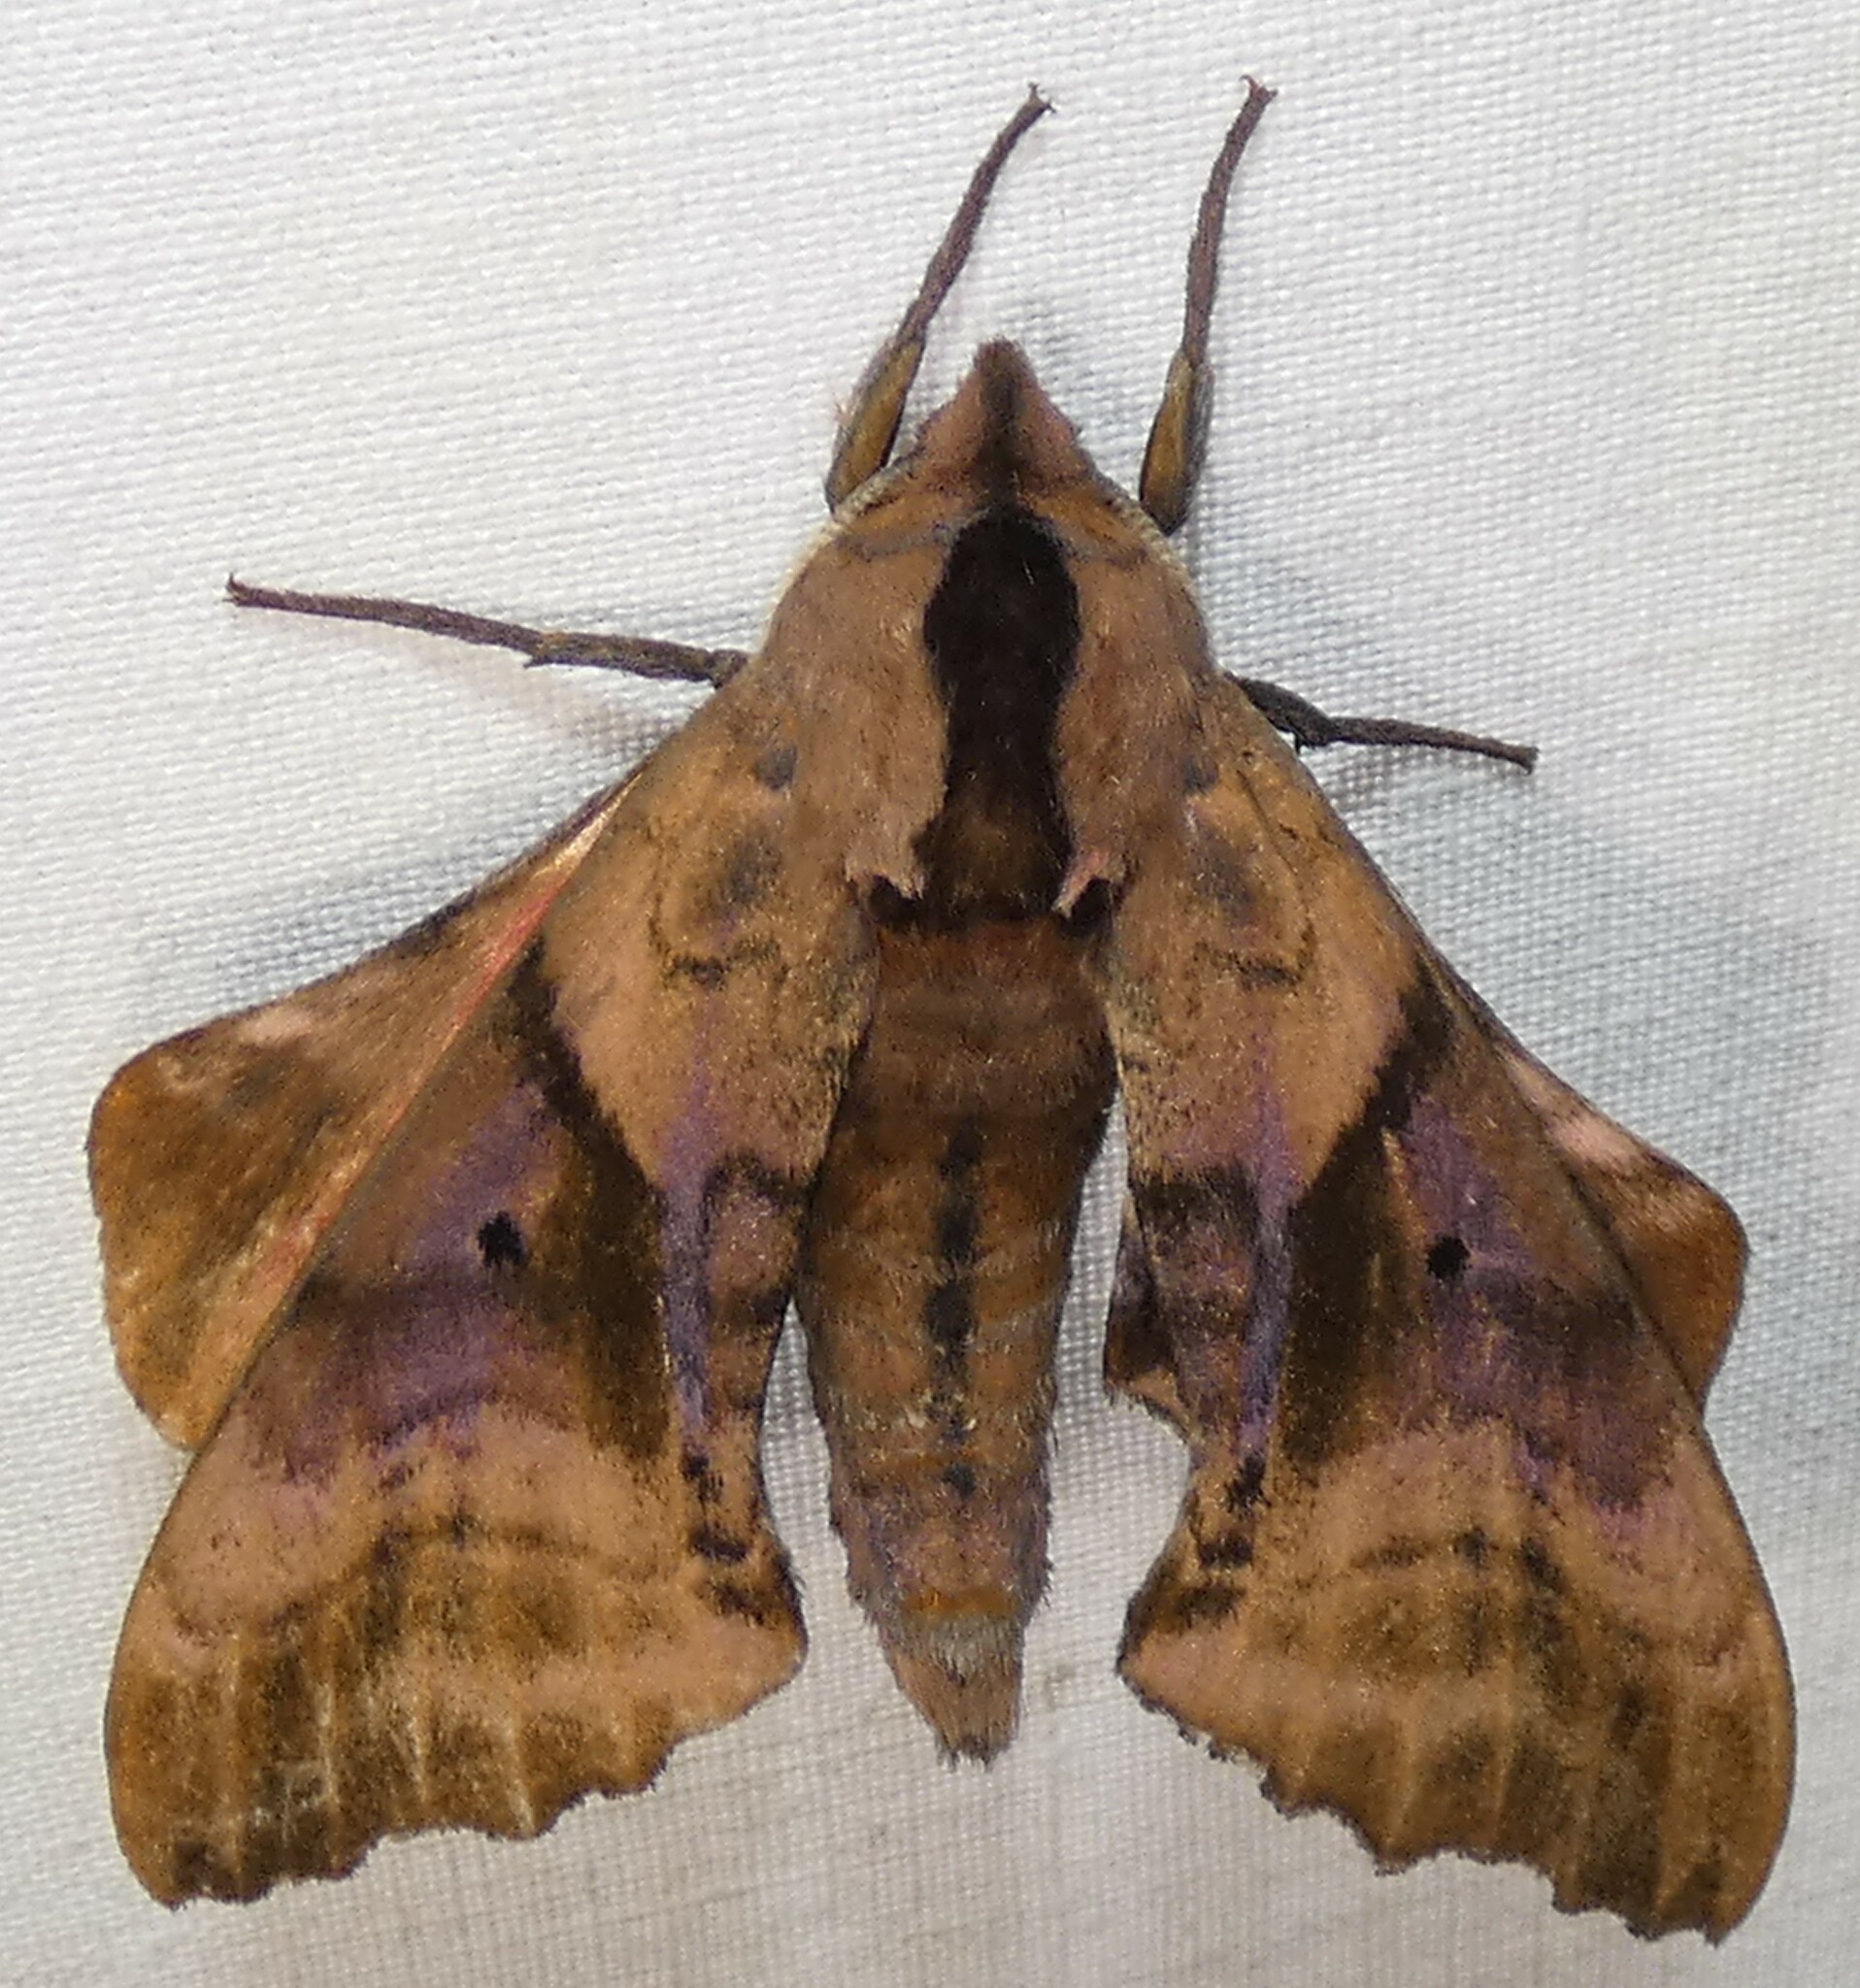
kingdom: Animalia
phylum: Arthropoda
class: Insecta
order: Lepidoptera
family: Sphingidae
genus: Paonias
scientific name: Paonias excaecata
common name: Blind-eyed sphinx
